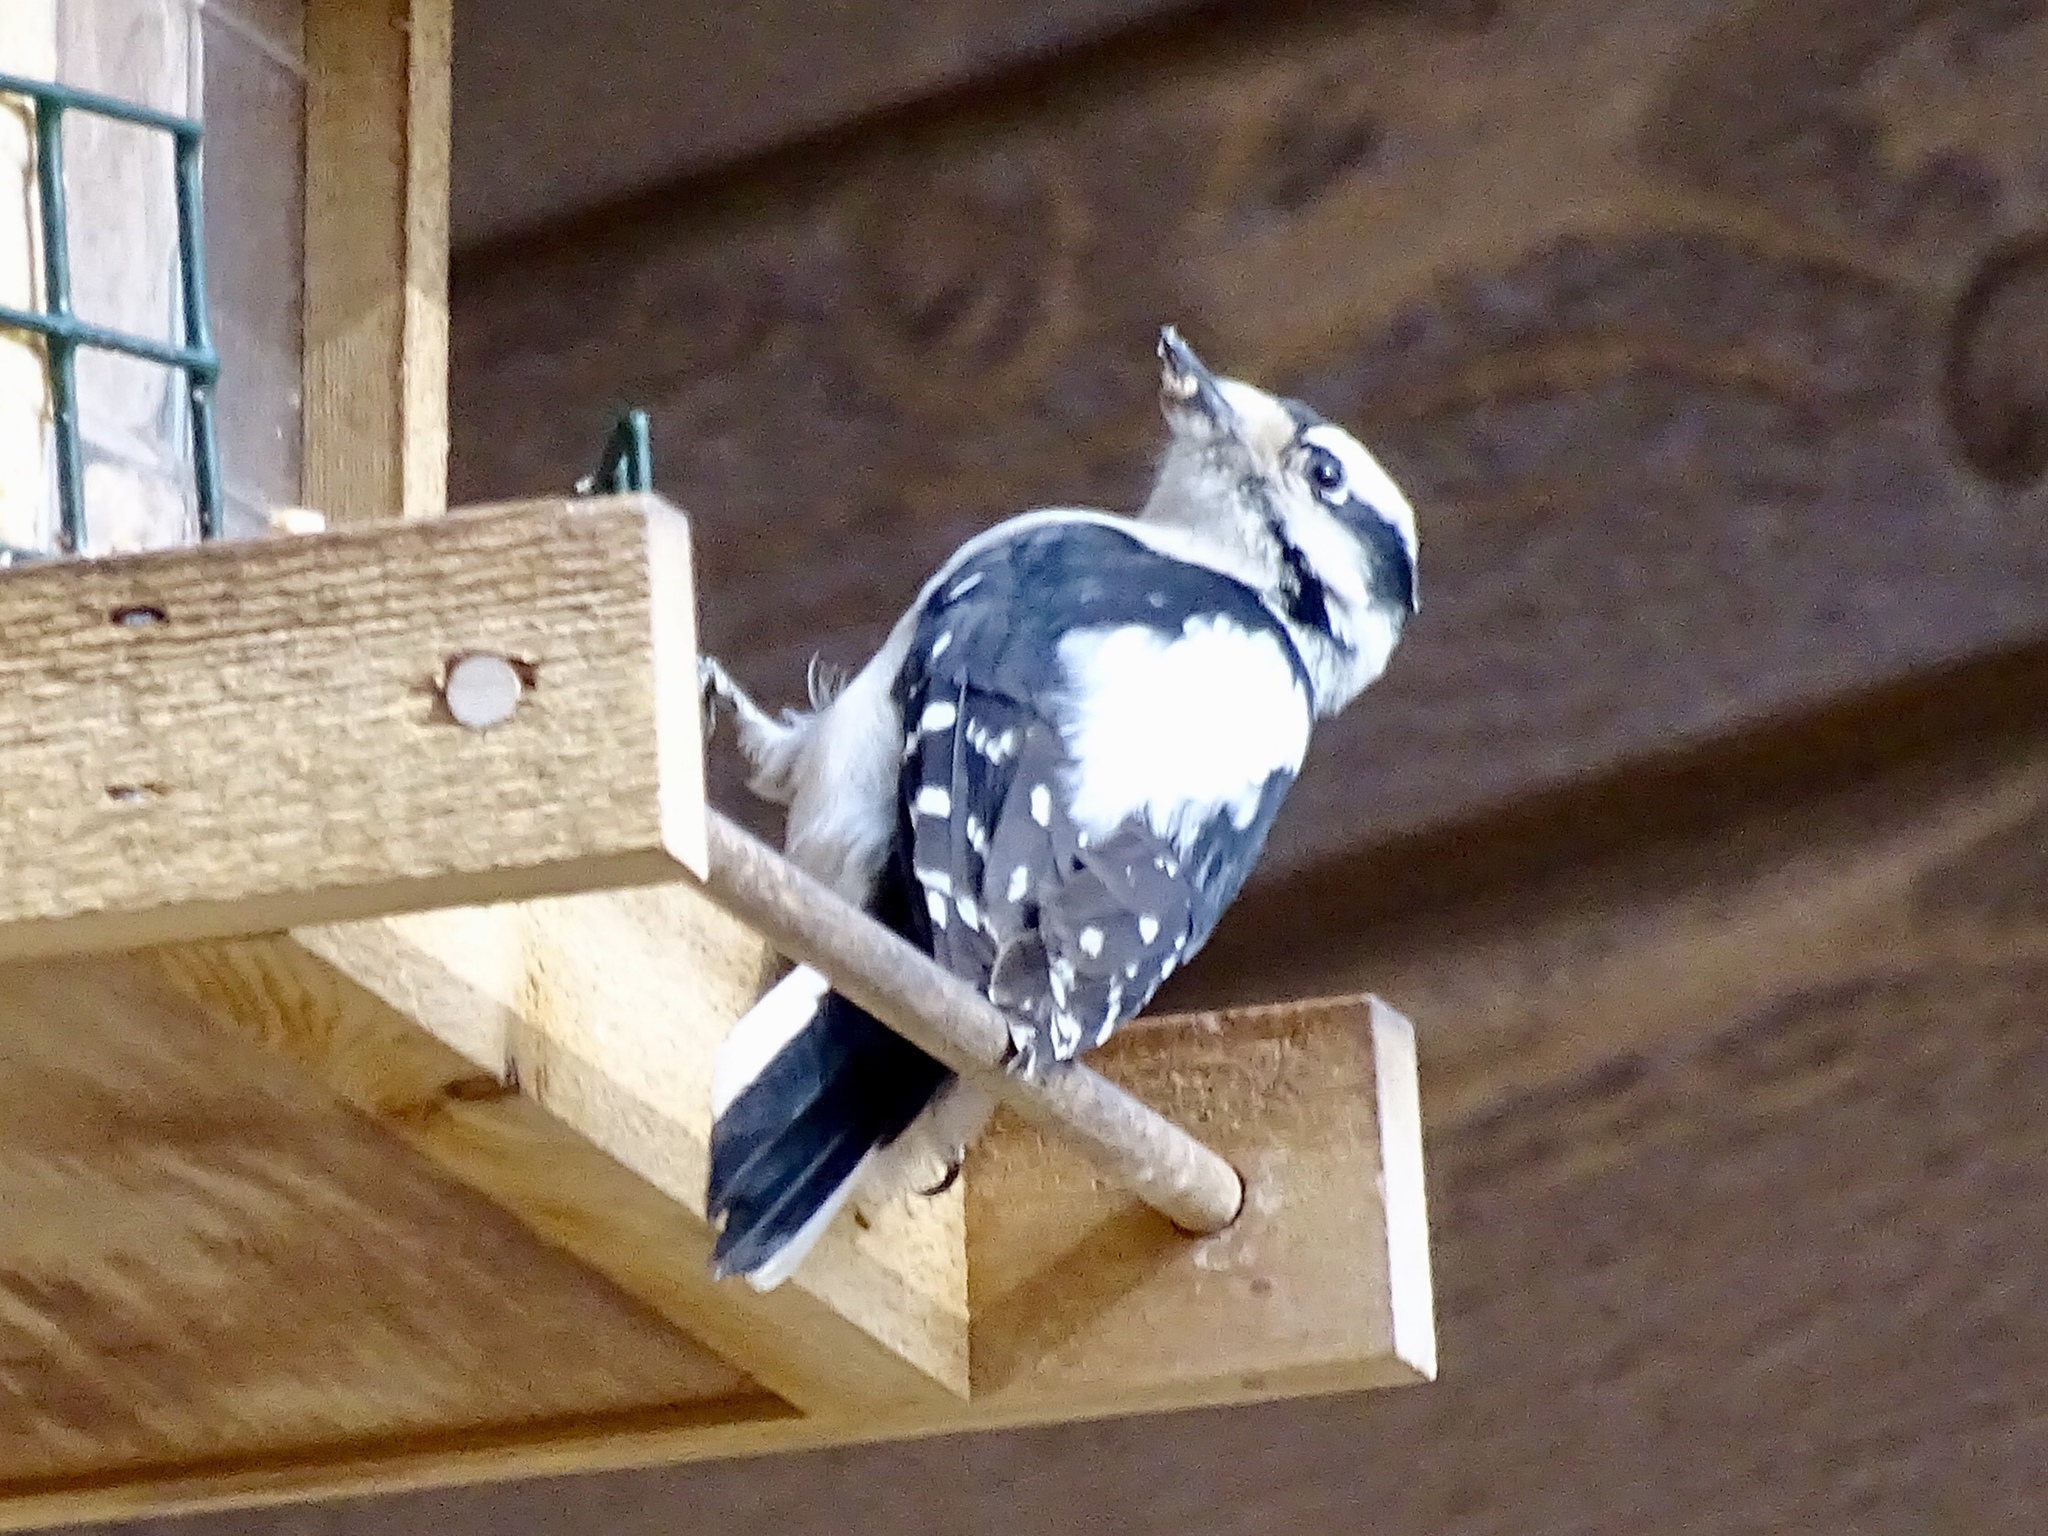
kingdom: Animalia
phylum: Chordata
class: Aves
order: Piciformes
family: Picidae
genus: Dryobates
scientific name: Dryobates pubescens
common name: Downy woodpecker
